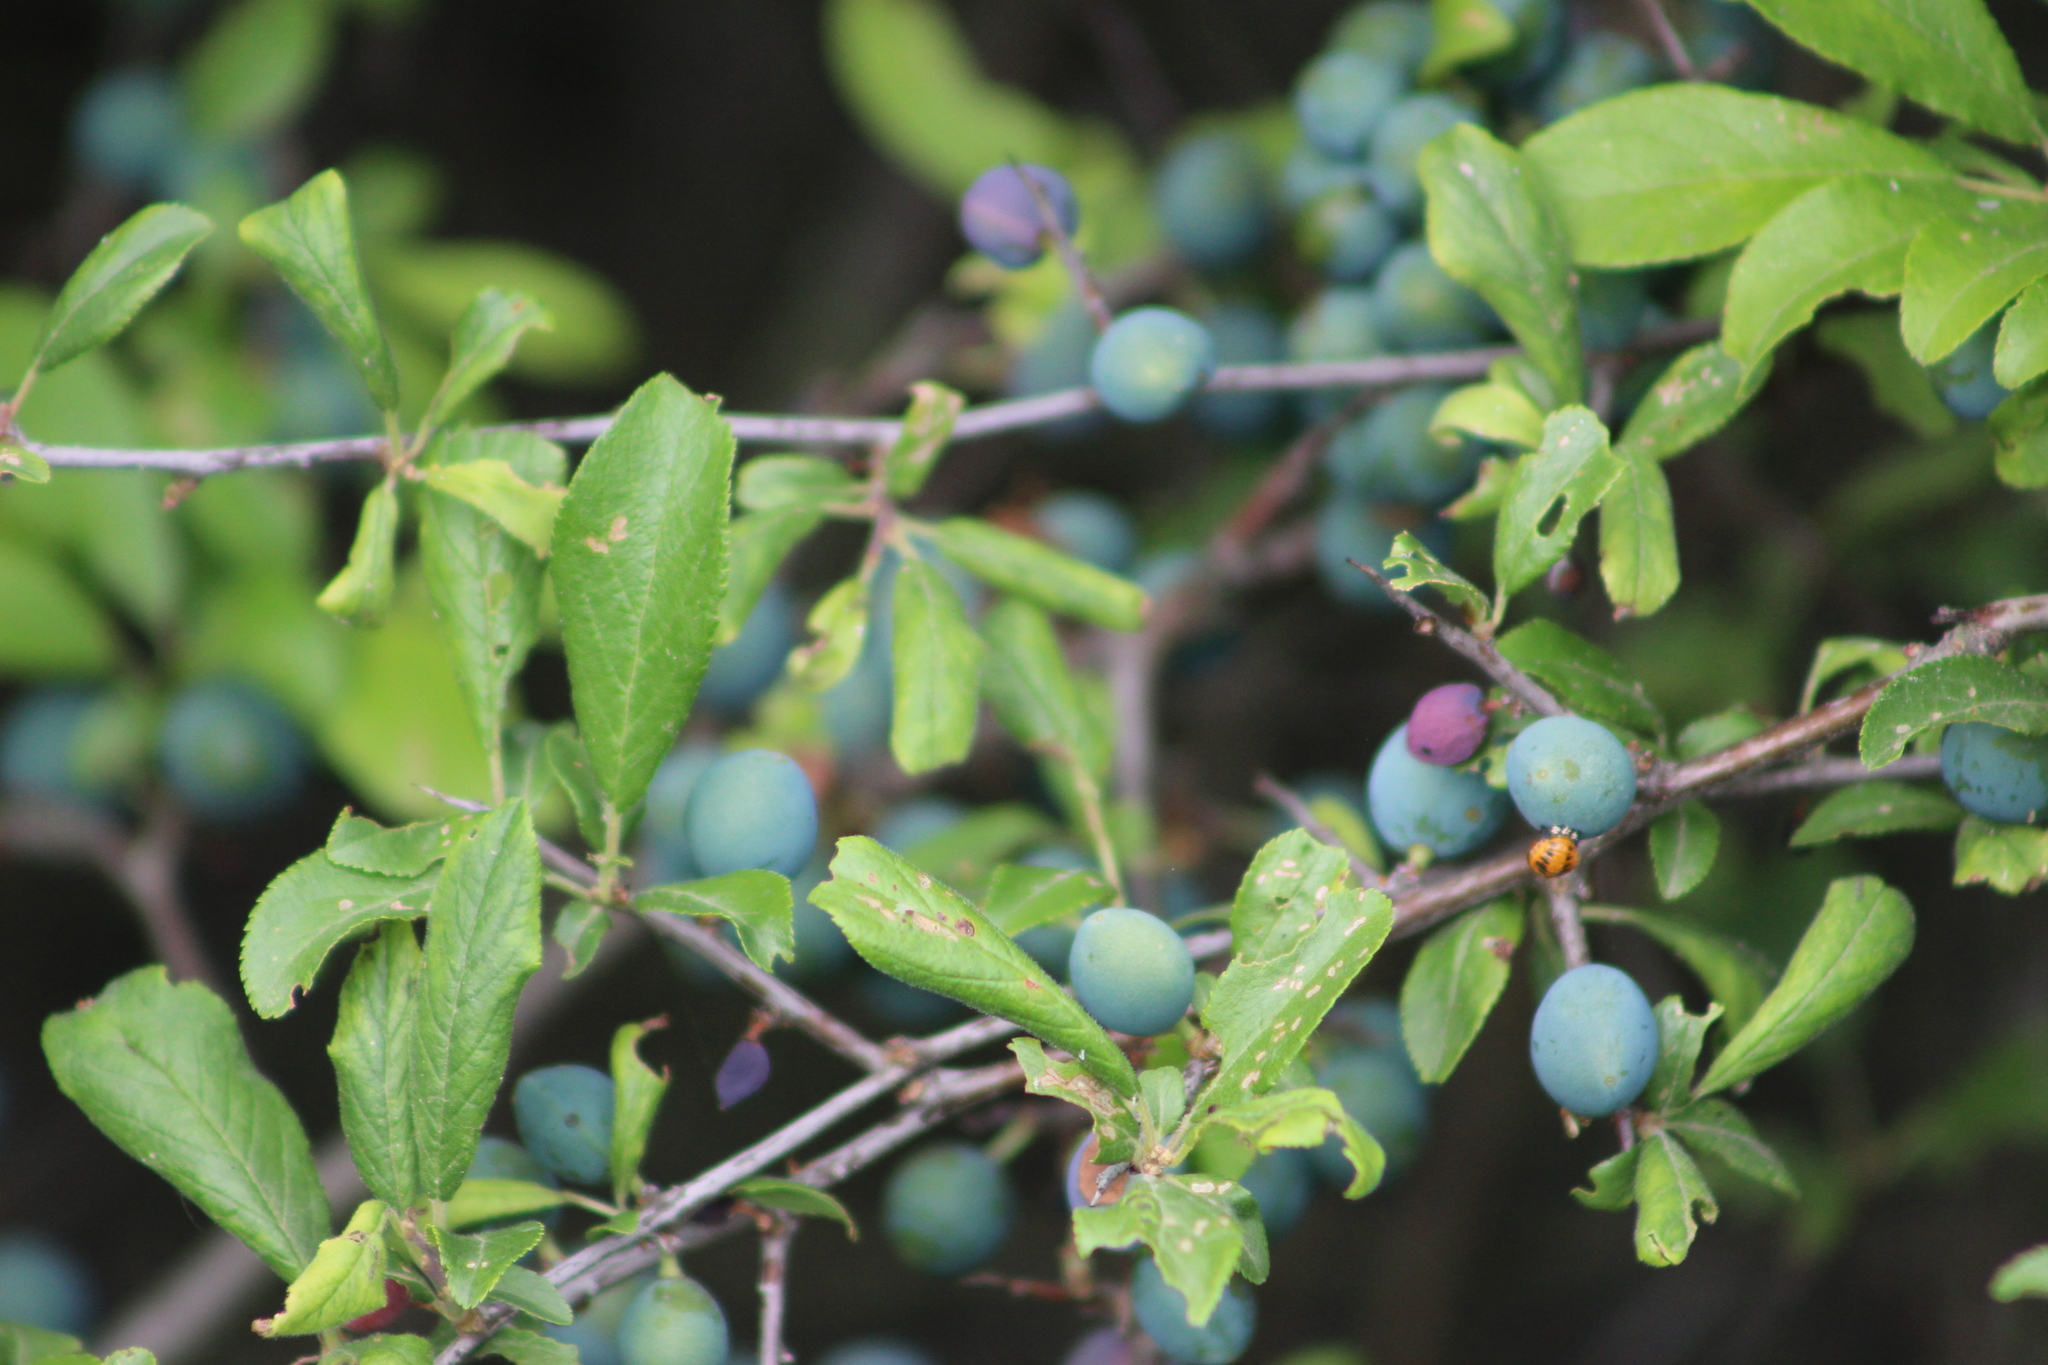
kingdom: Plantae
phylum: Tracheophyta
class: Magnoliopsida
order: Rosales
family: Rosaceae
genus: Prunus
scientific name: Prunus spinosa
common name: Blackthorn
